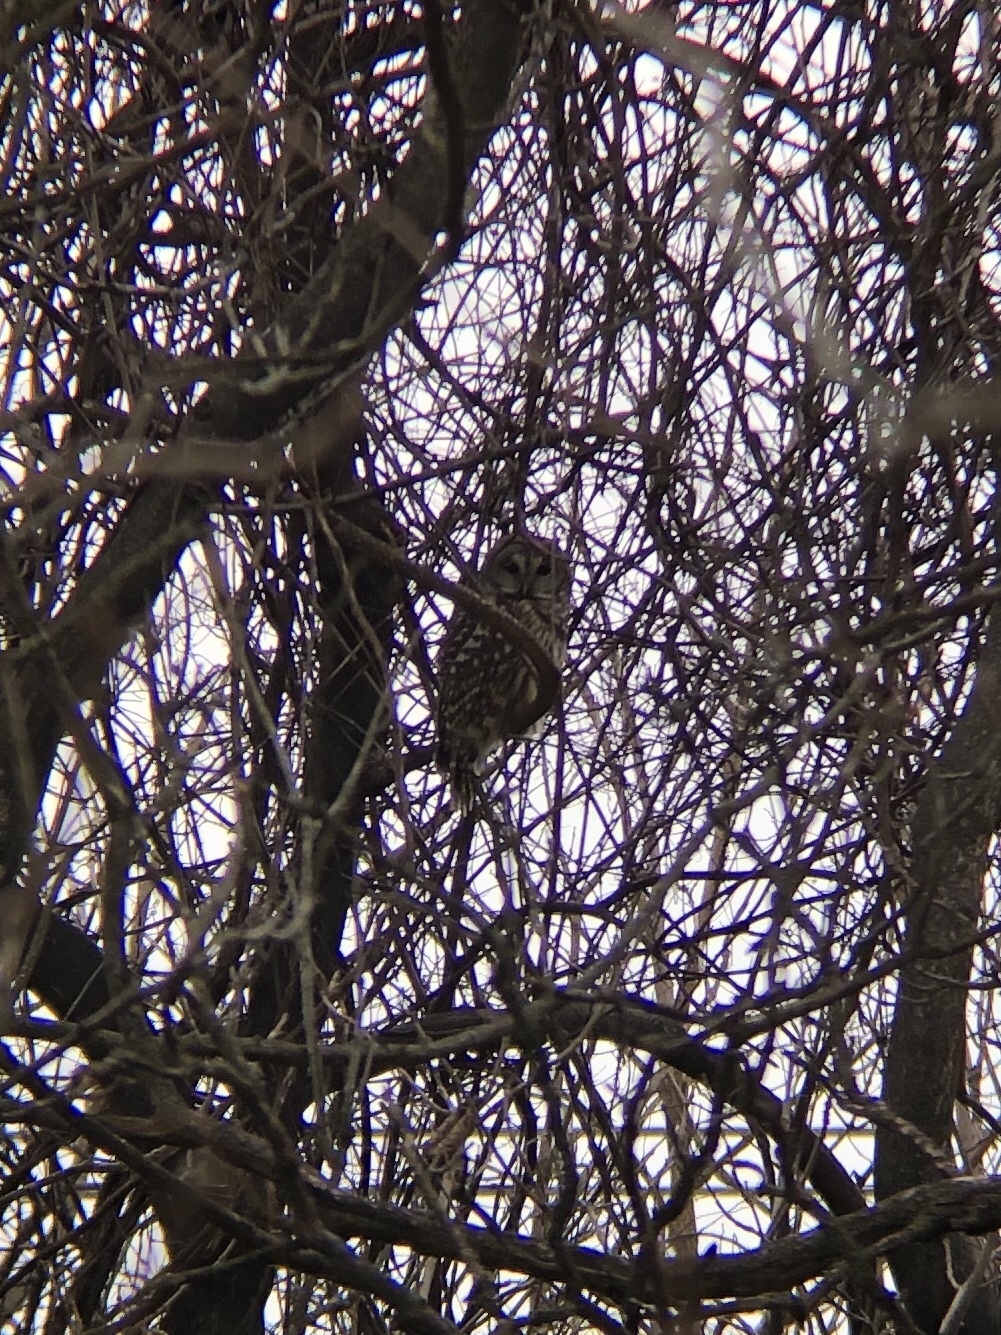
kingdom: Animalia
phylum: Chordata
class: Aves
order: Strigiformes
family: Strigidae
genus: Strix
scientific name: Strix varia
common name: Barred owl
